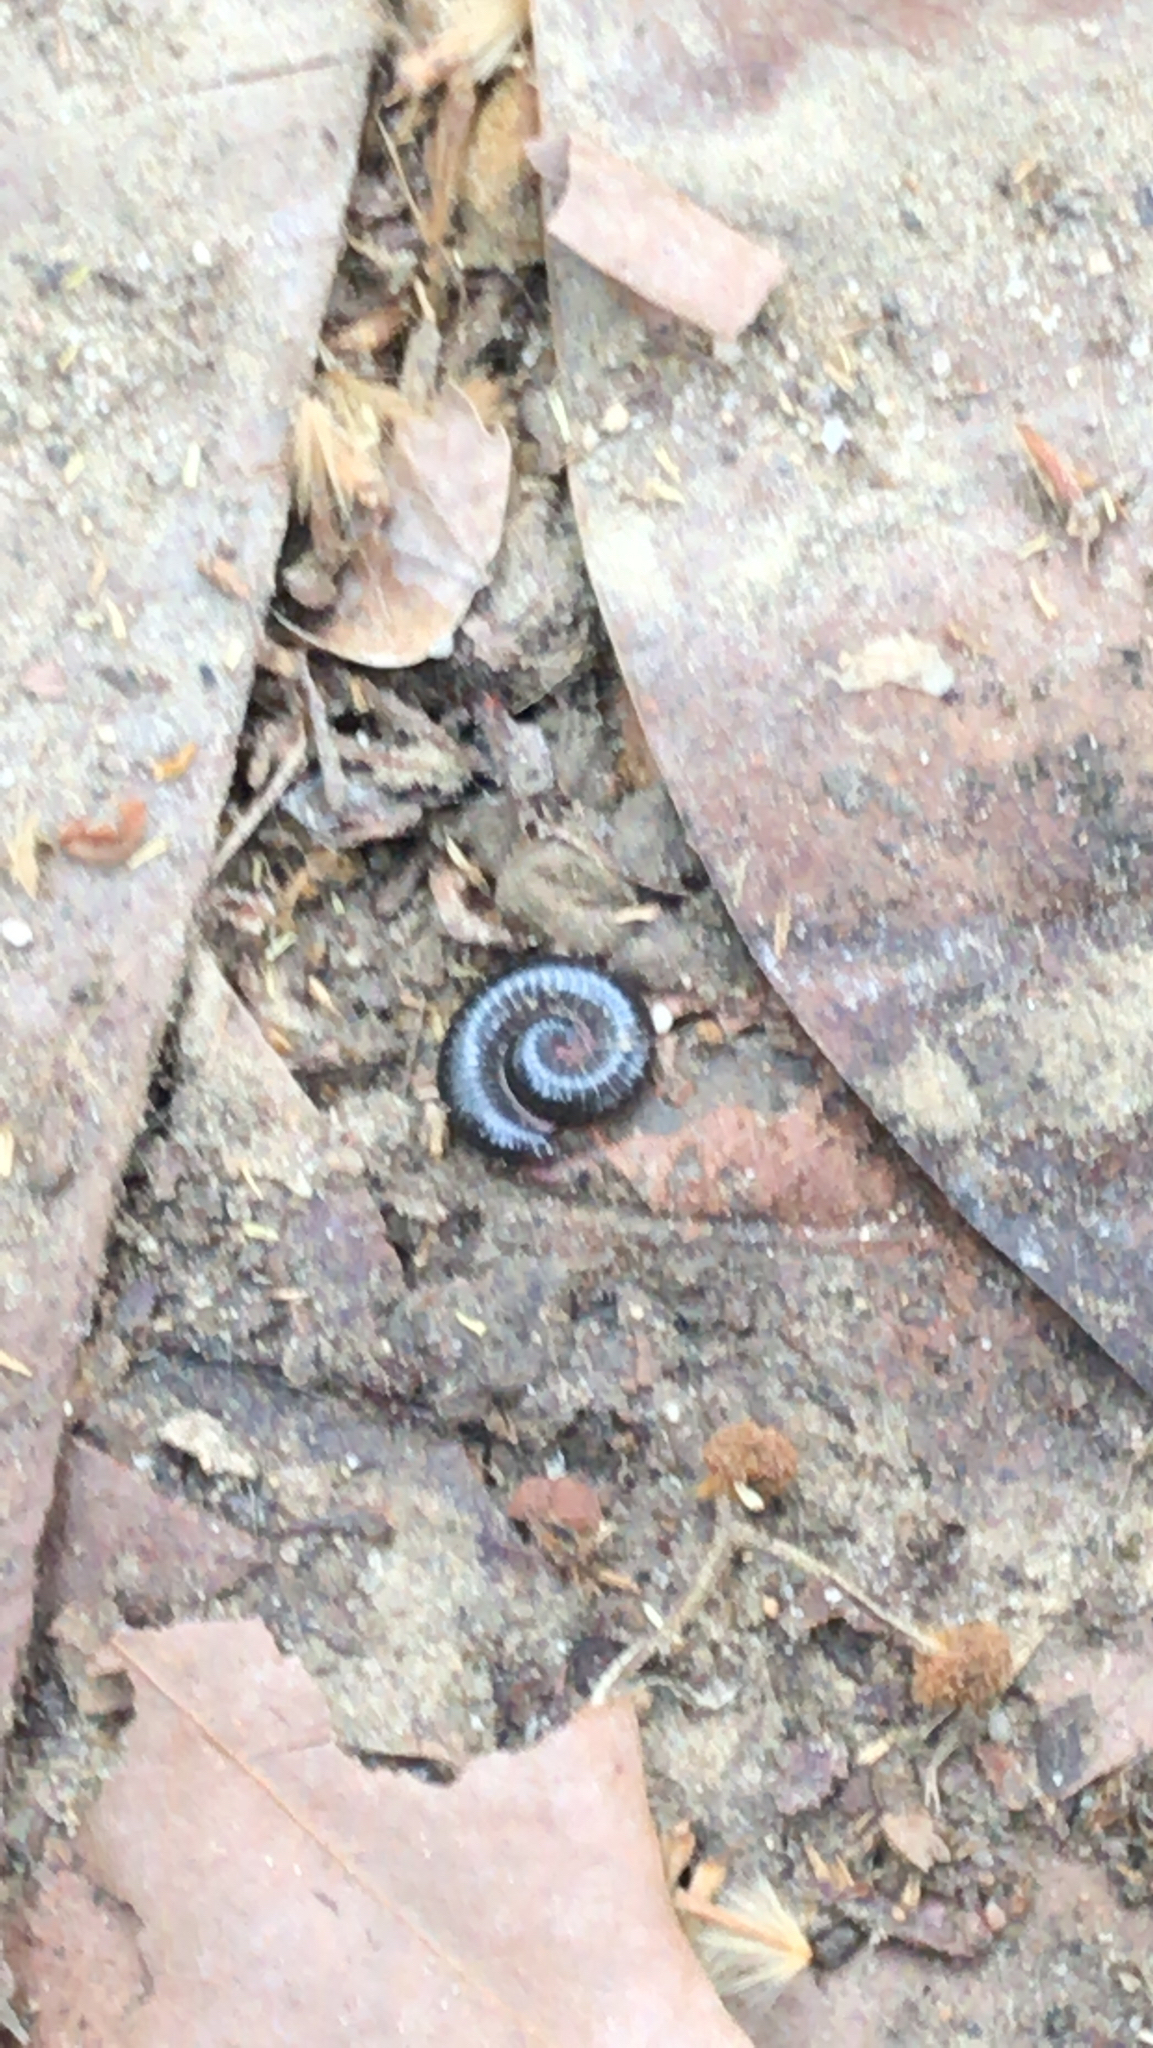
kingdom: Animalia
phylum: Arthropoda
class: Diplopoda
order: Julida
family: Julidae
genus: Ommatoiulus
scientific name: Ommatoiulus moreleti
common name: Portuguese millipede
